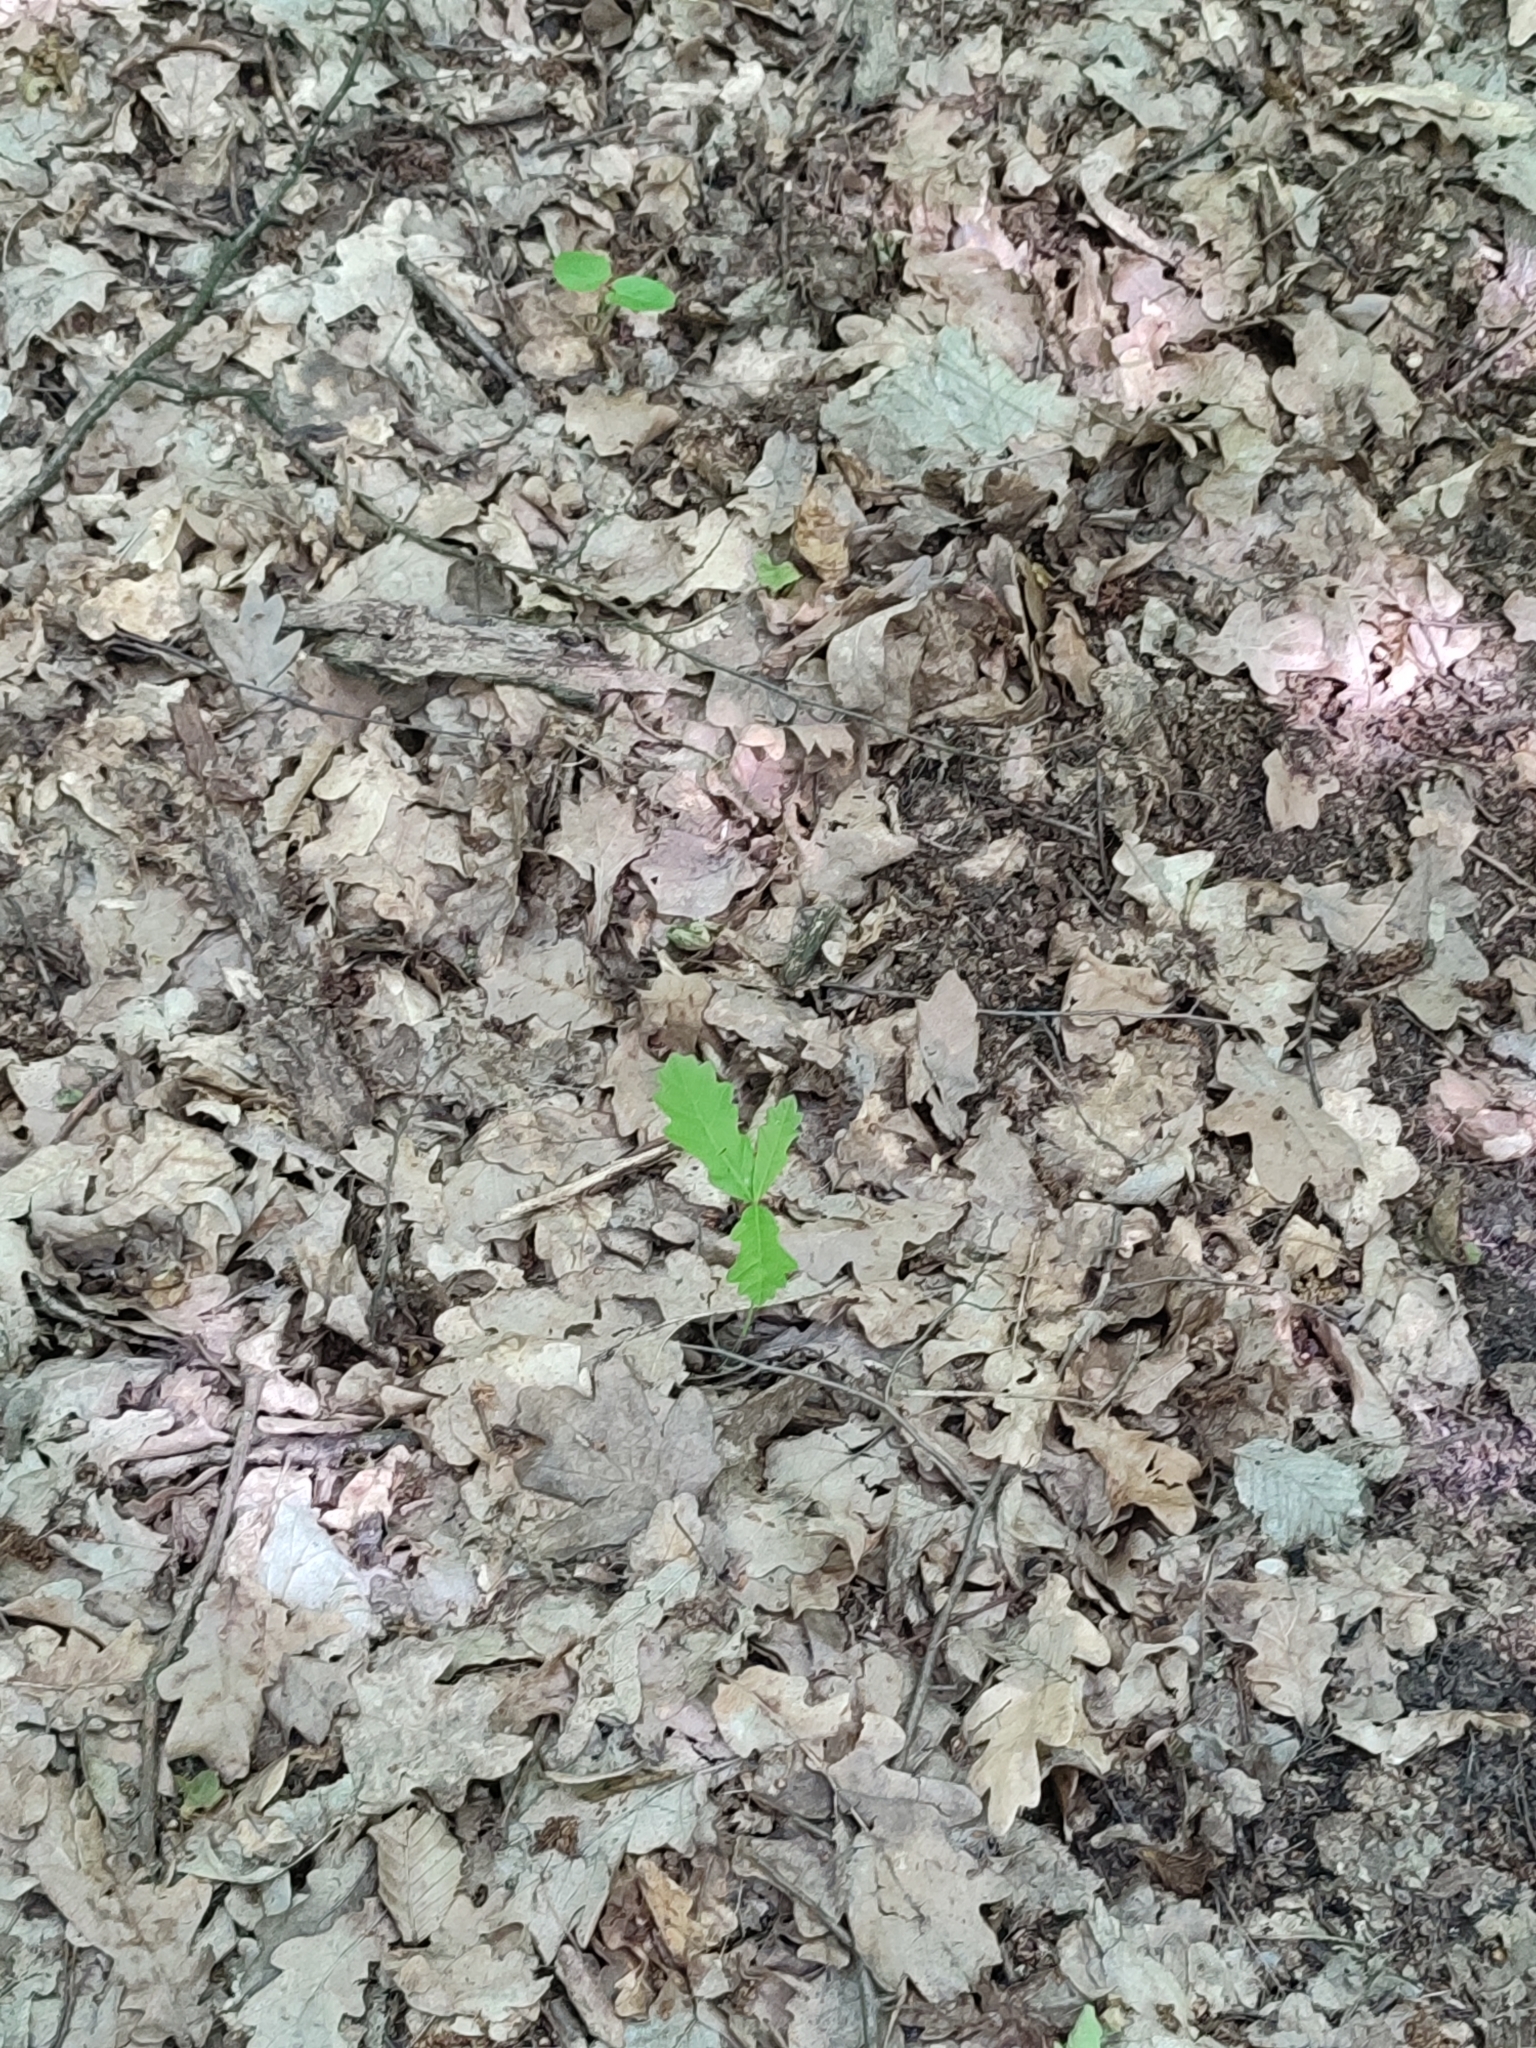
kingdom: Plantae
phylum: Tracheophyta
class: Magnoliopsida
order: Fagales
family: Fagaceae
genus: Quercus
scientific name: Quercus robur
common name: Pedunculate oak
